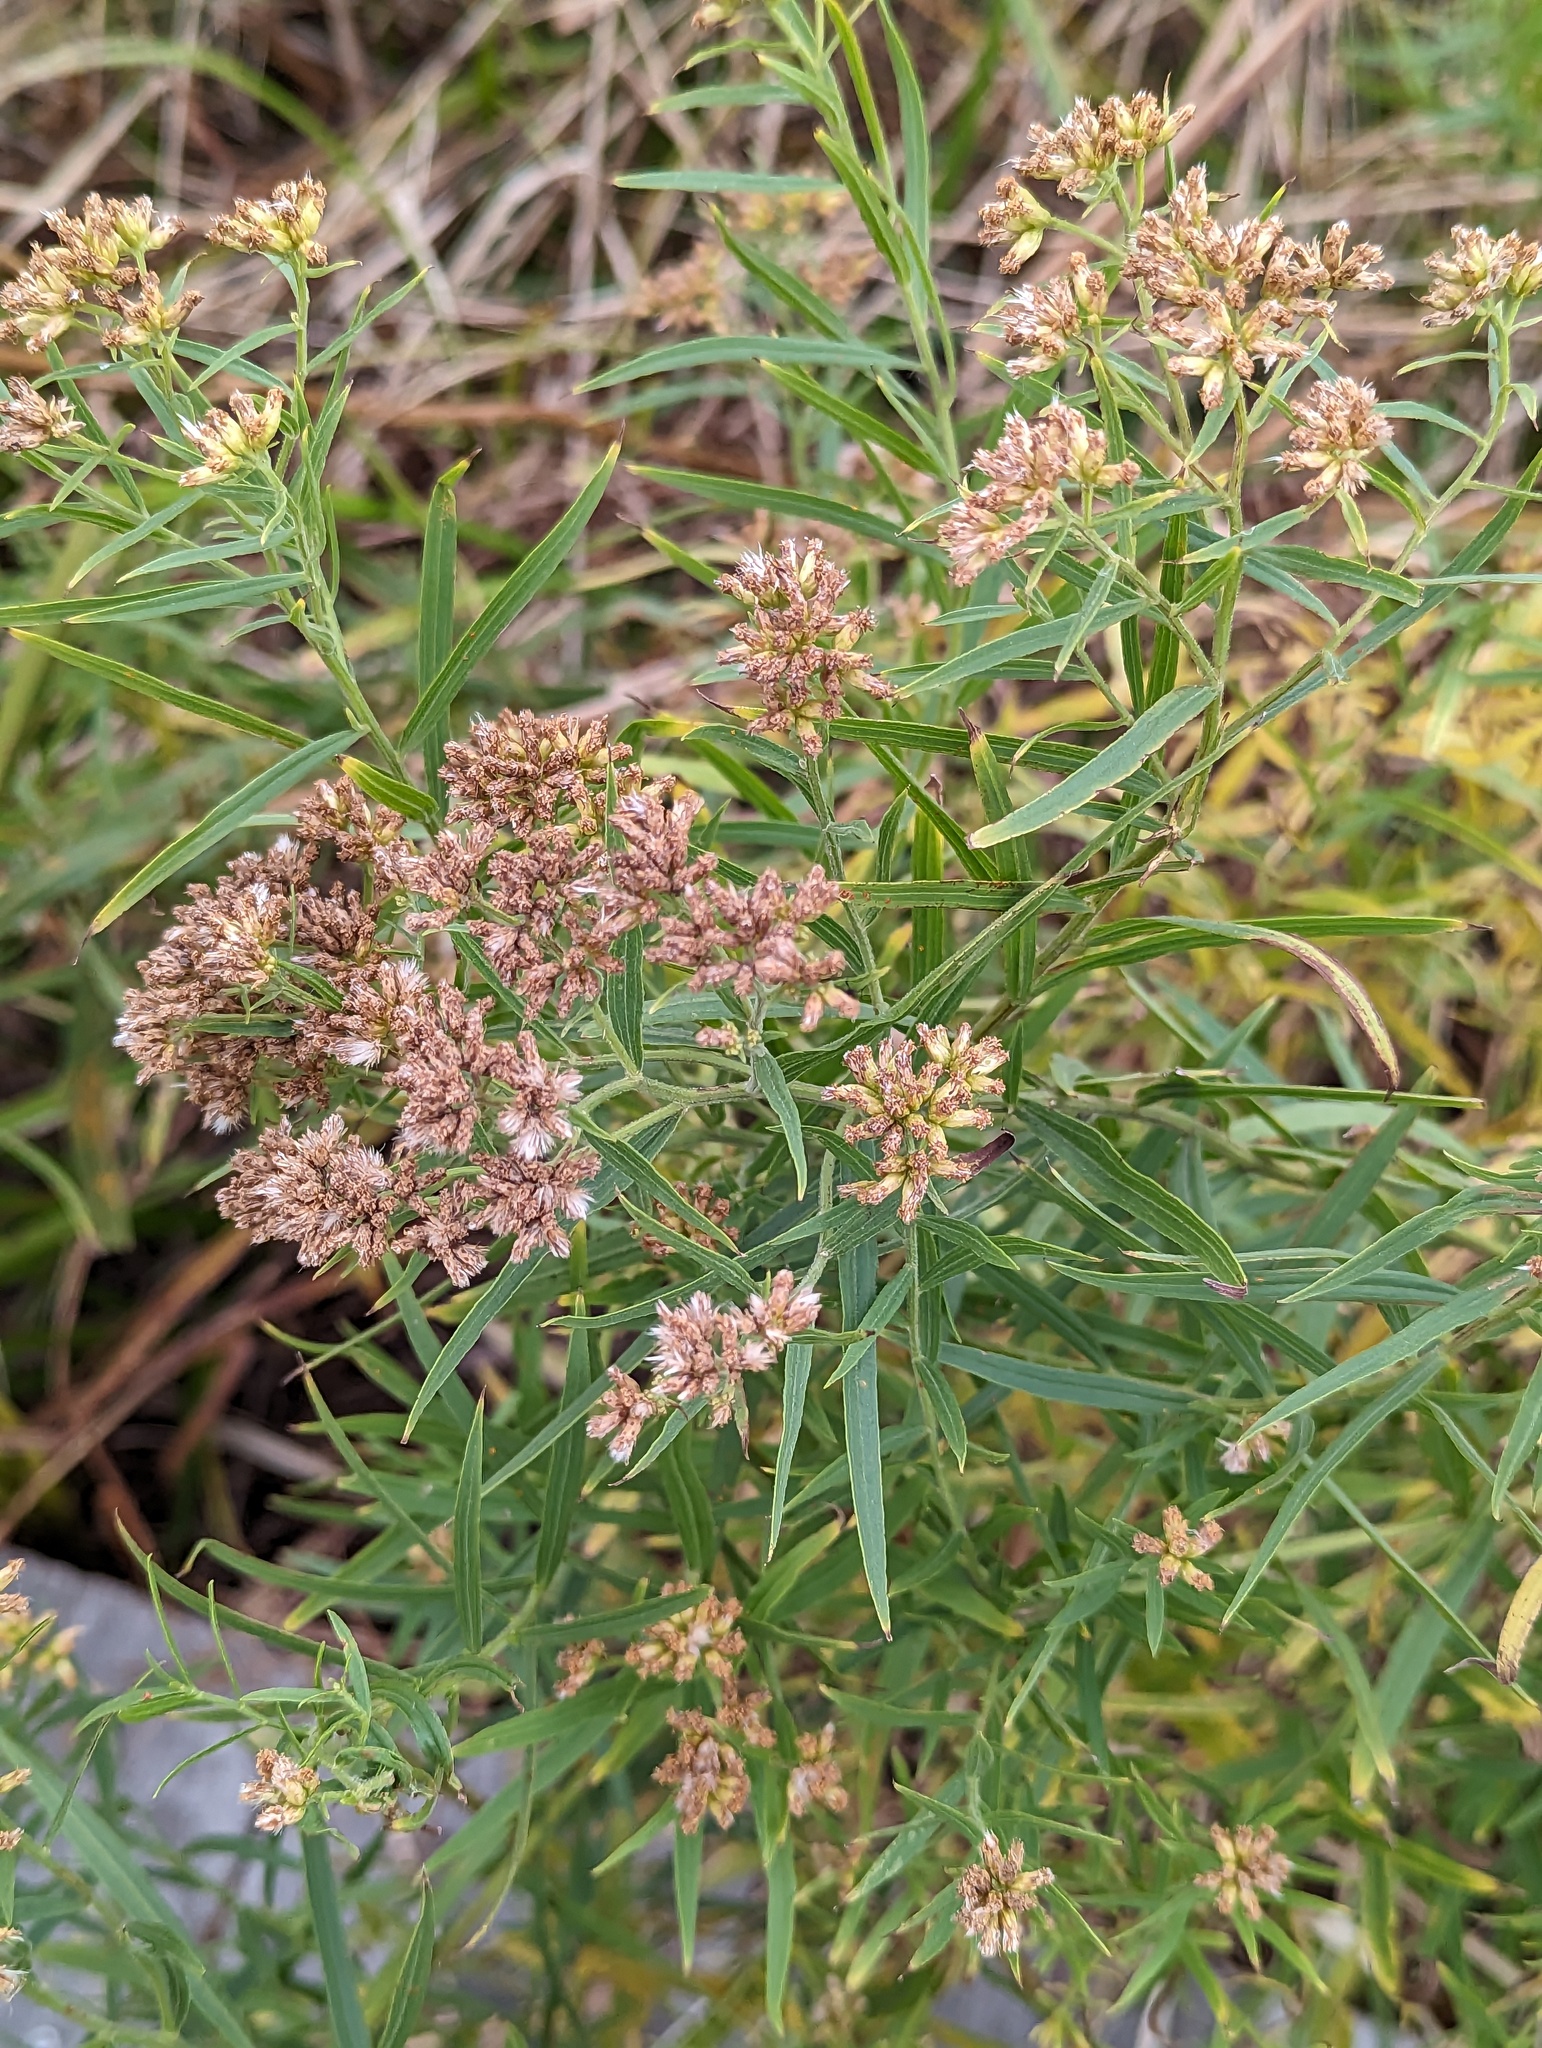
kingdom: Plantae
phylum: Tracheophyta
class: Magnoliopsida
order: Asterales
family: Asteraceae
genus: Euthamia
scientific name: Euthamia graminifolia
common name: Common goldentop
